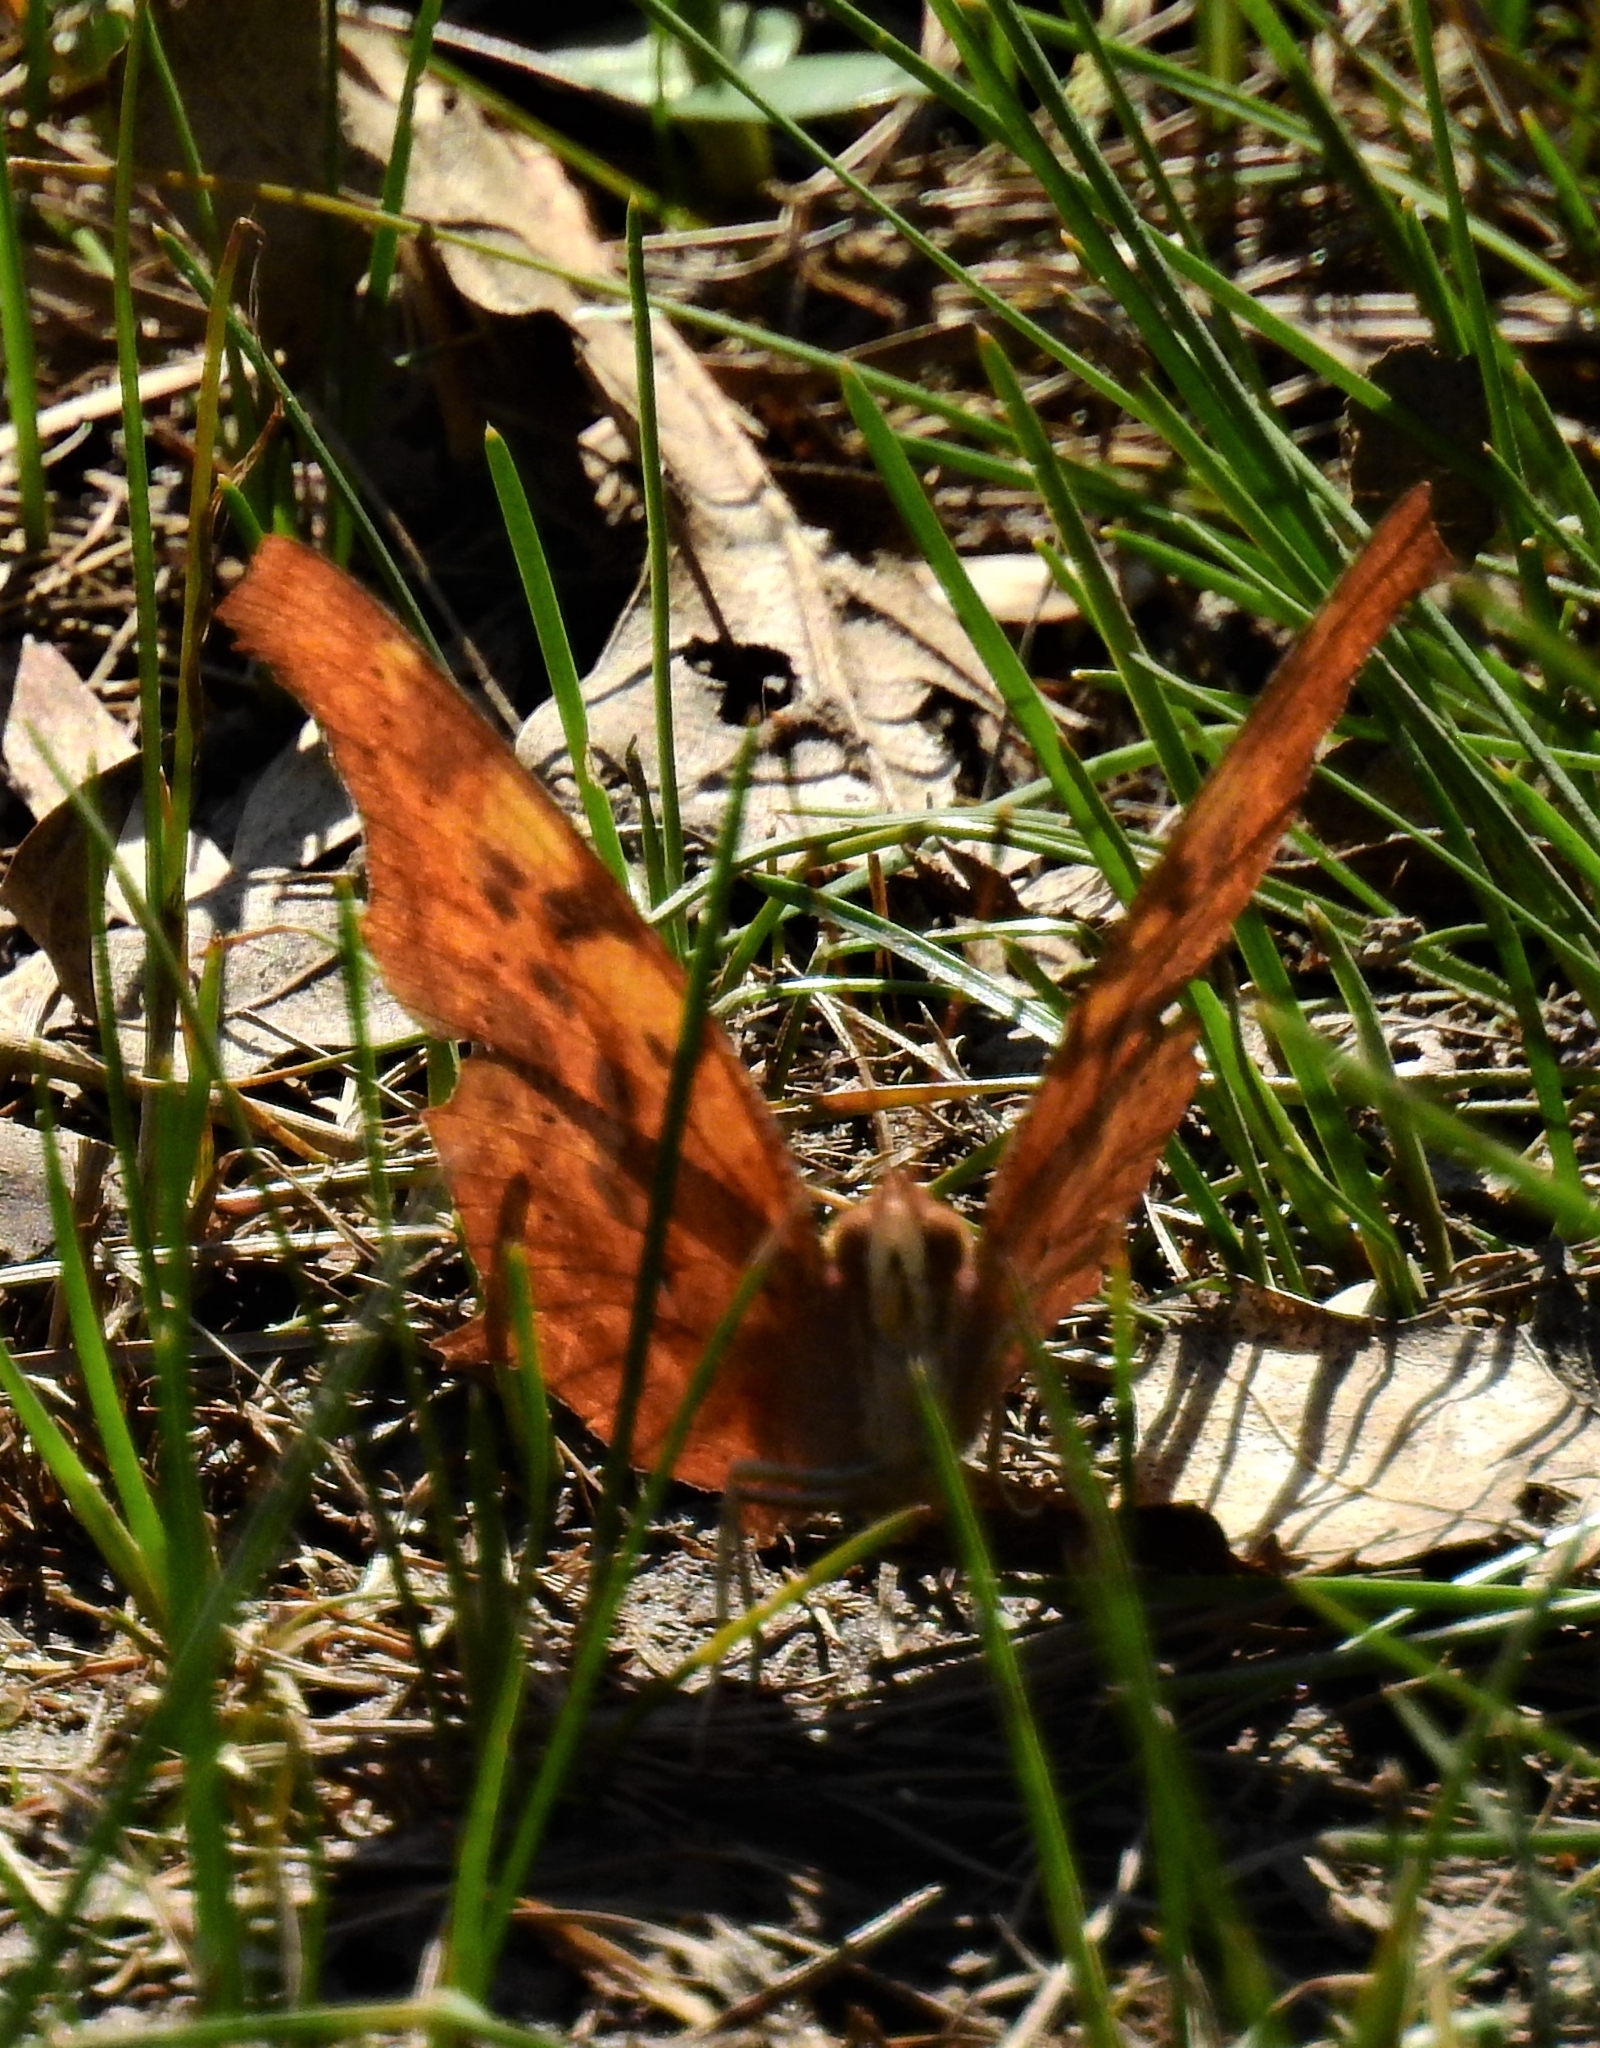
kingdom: Animalia
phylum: Arthropoda
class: Insecta
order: Lepidoptera
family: Nymphalidae
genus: Polygonia
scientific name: Polygonia interrogationis
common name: Question mark
